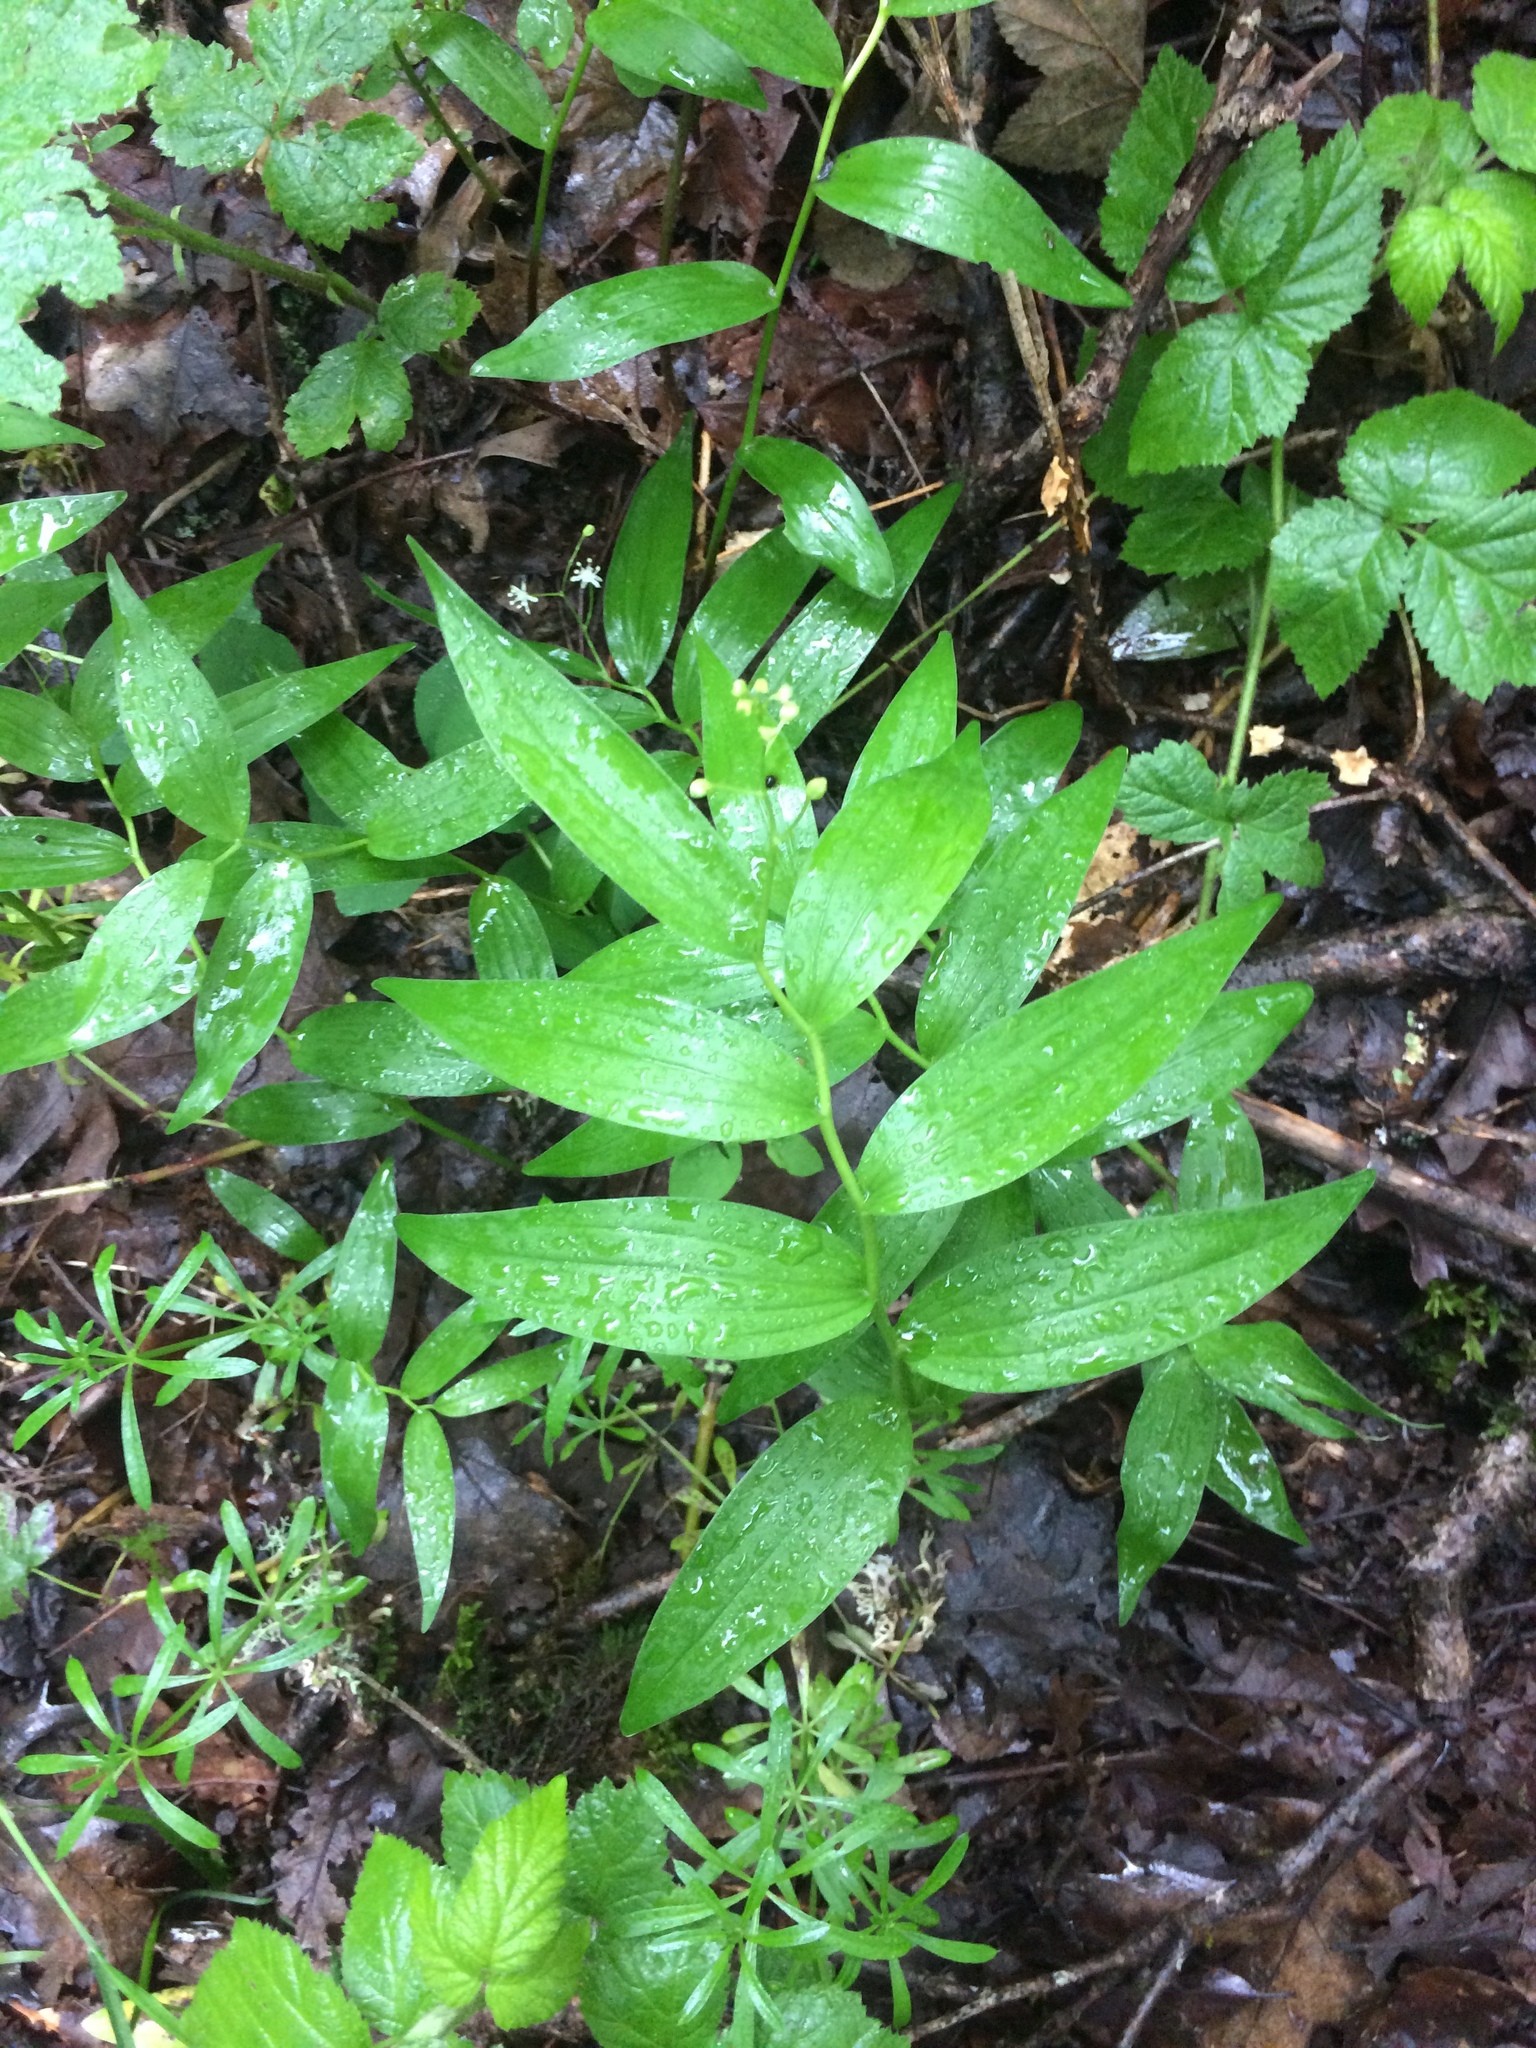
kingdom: Plantae
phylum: Tracheophyta
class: Liliopsida
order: Asparagales
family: Asparagaceae
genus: Maianthemum
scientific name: Maianthemum stellatum
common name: Little false solomon's seal
